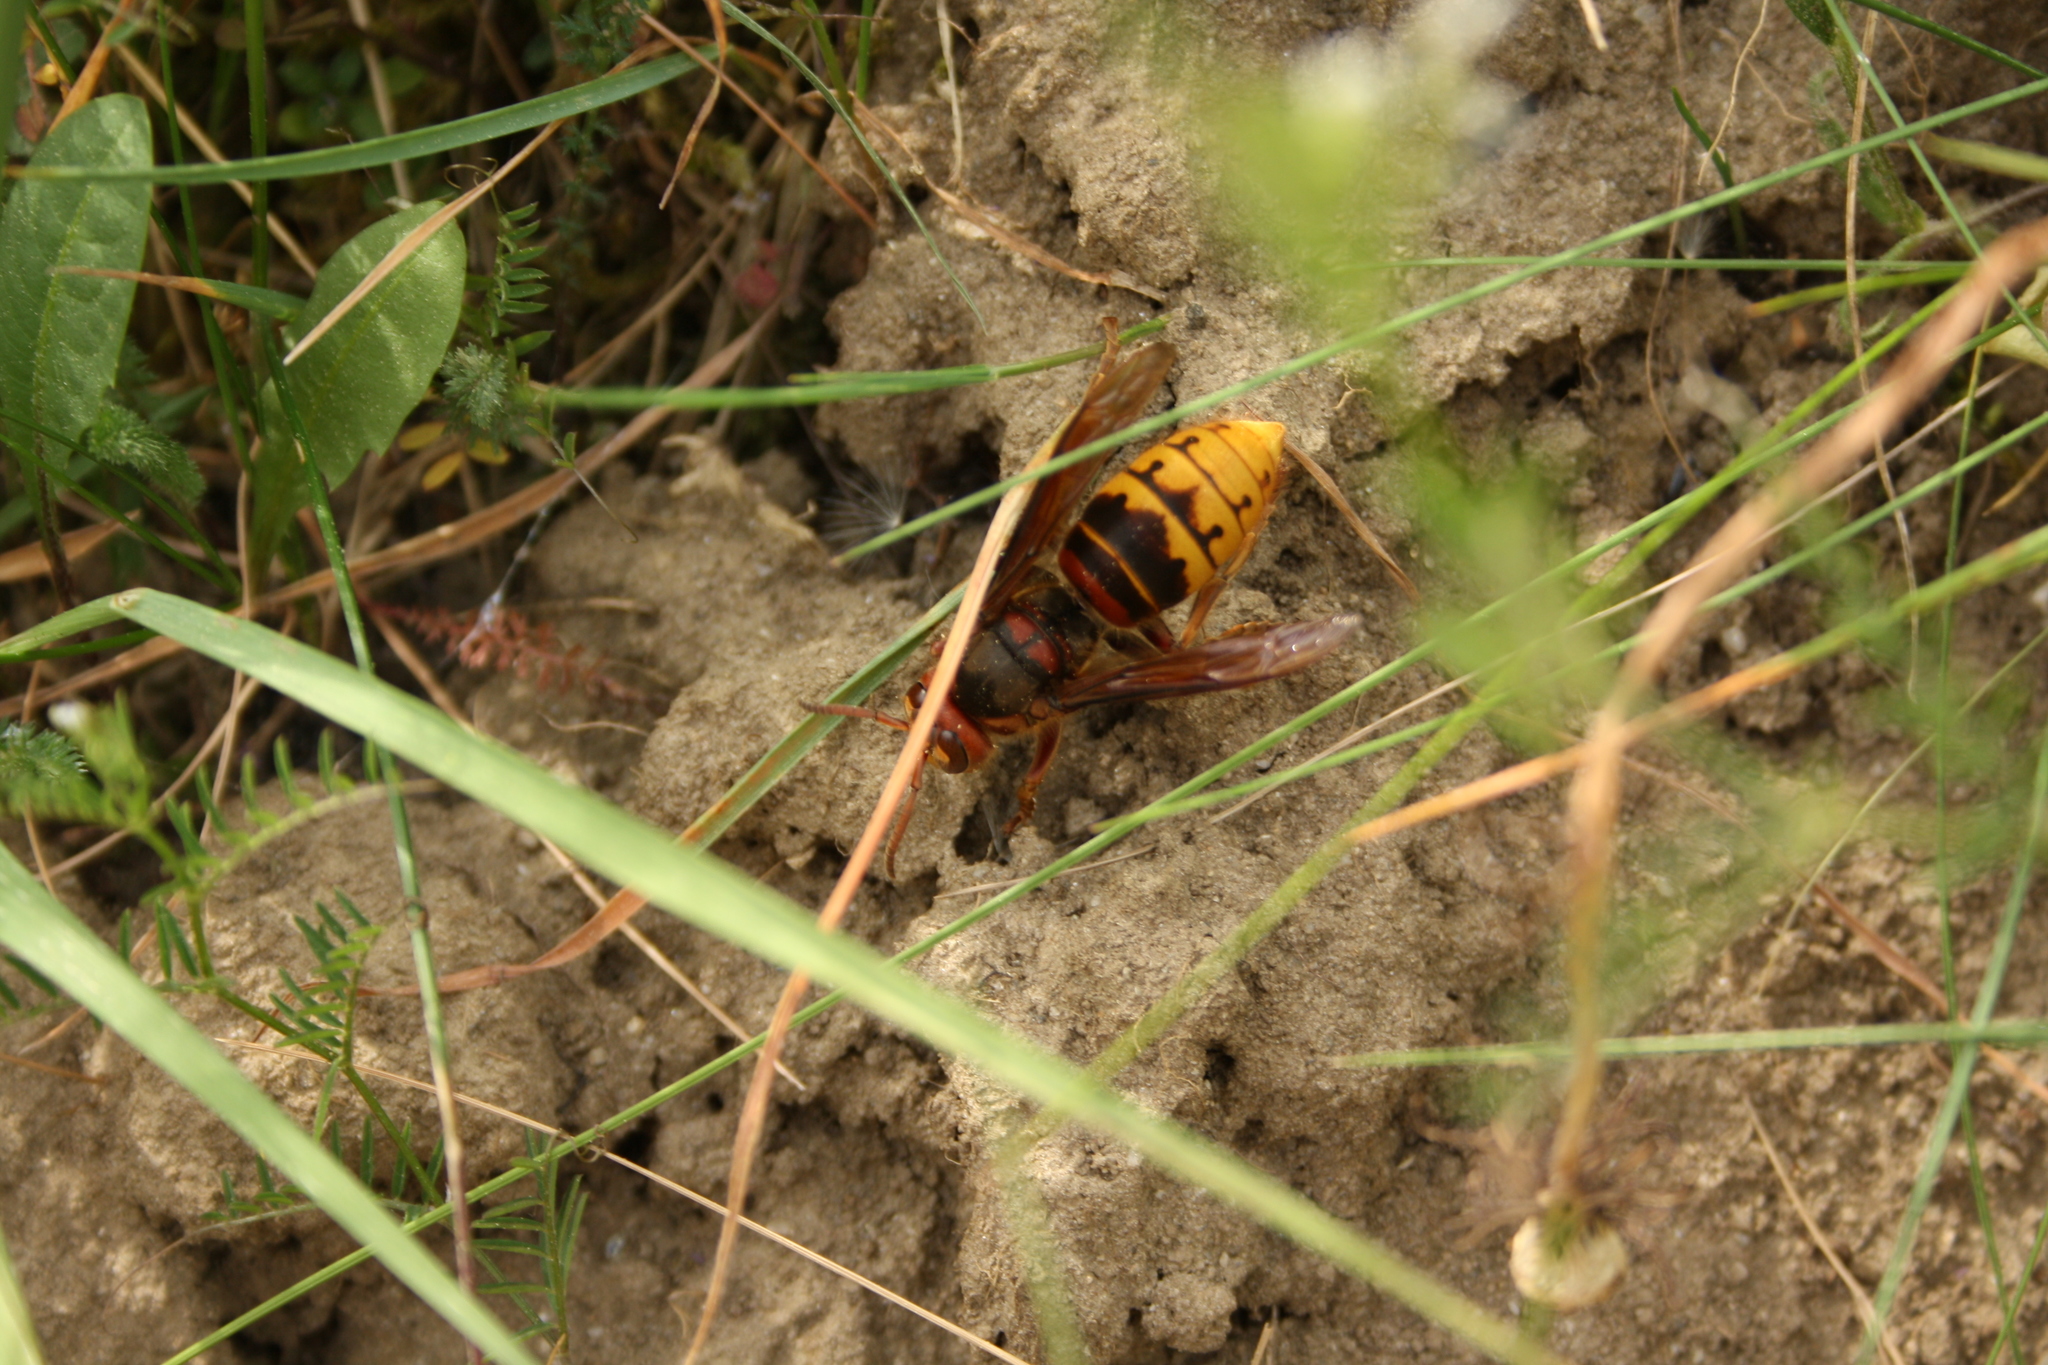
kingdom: Animalia
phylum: Arthropoda
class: Insecta
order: Hymenoptera
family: Vespidae
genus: Vespa
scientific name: Vespa crabro
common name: Hornet
